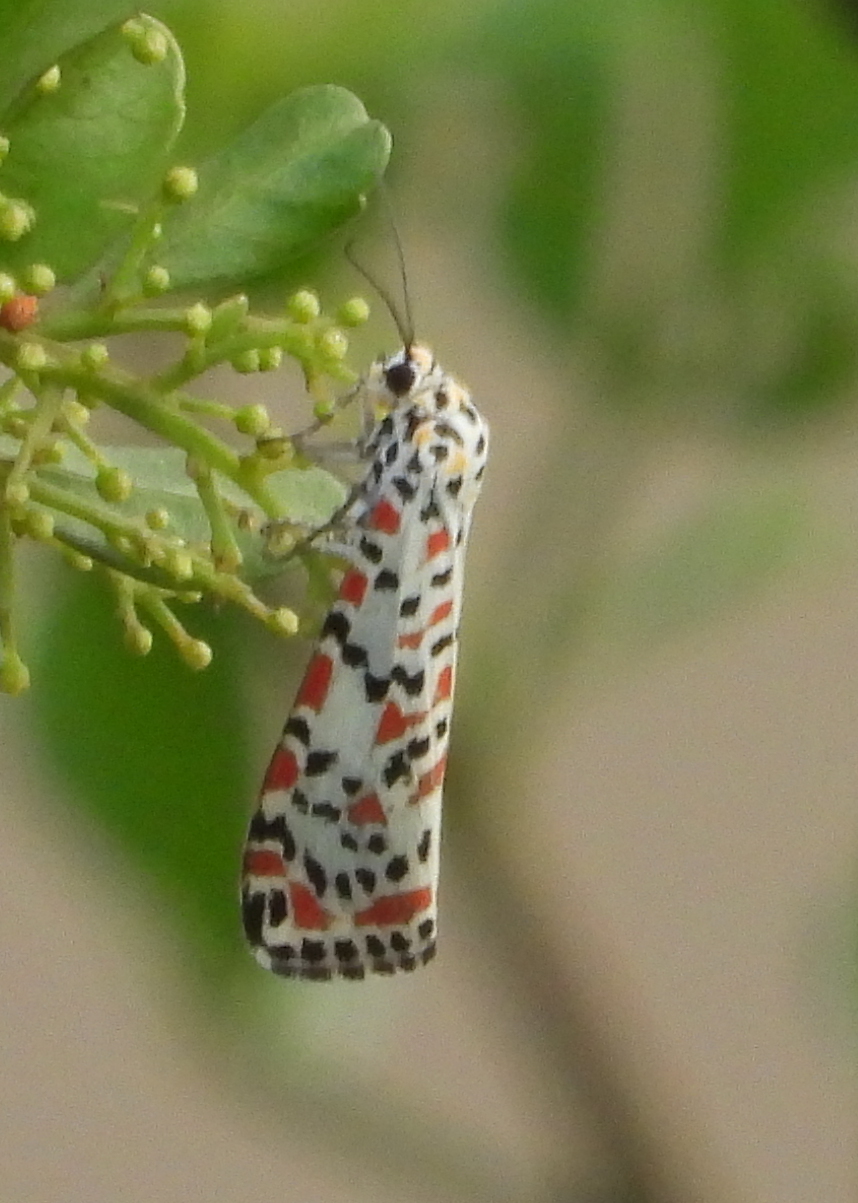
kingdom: Animalia
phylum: Arthropoda
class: Insecta
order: Lepidoptera
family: Erebidae
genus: Utetheisa
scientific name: Utetheisa pulchella
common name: Crimson speckled
